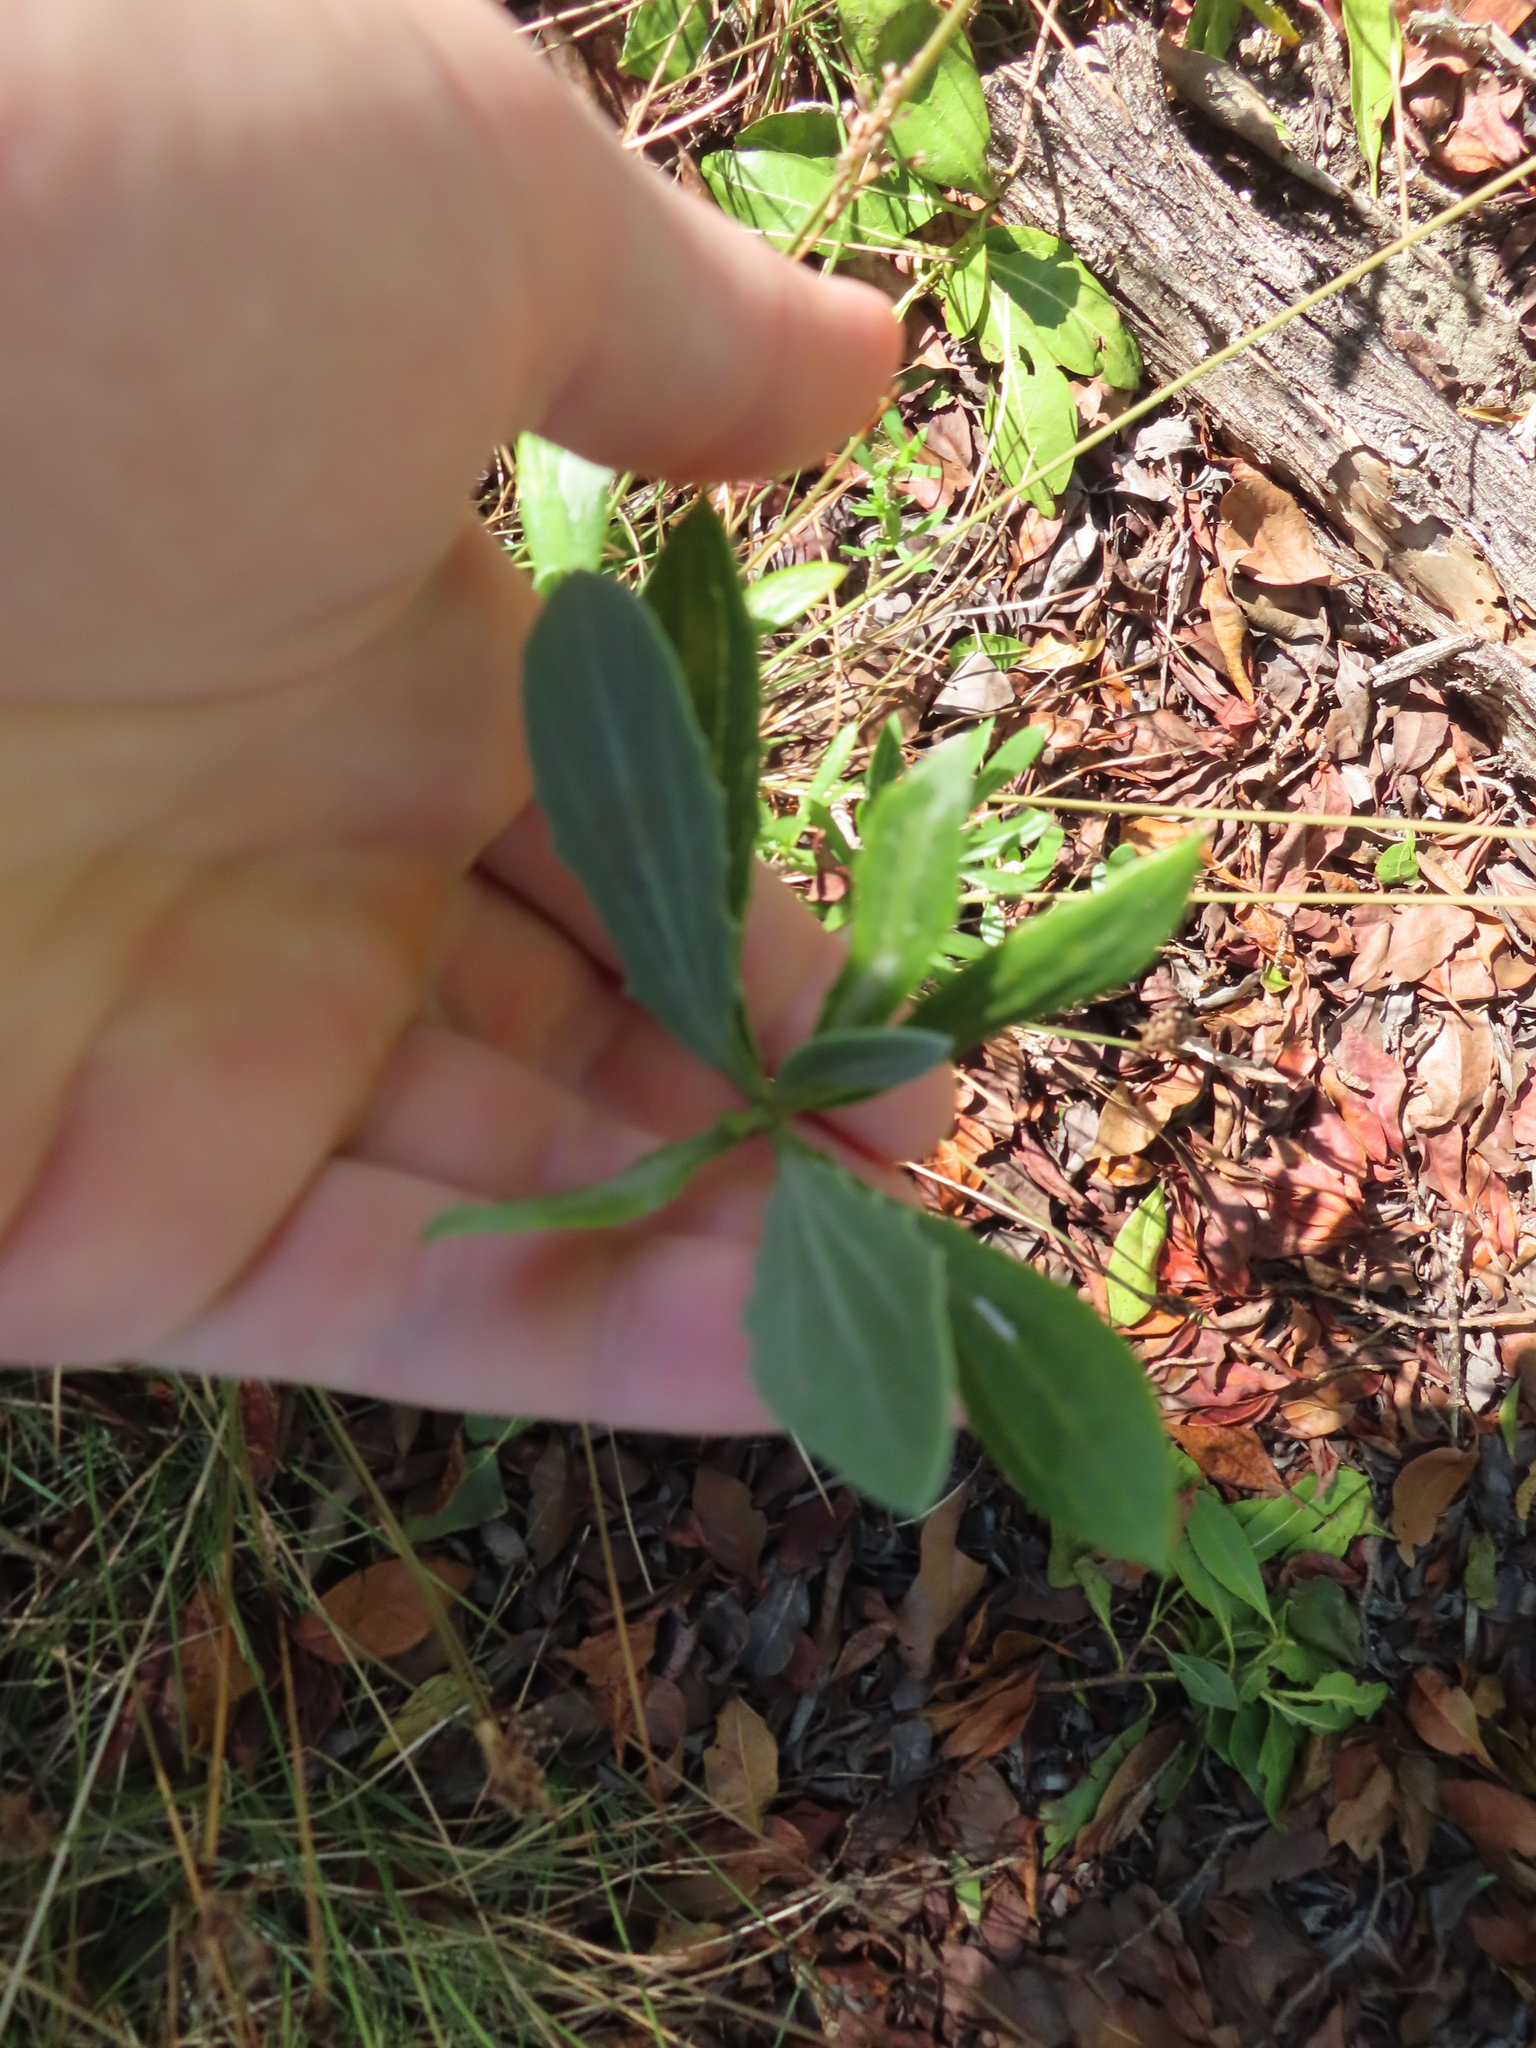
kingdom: Plantae
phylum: Tracheophyta
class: Magnoliopsida
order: Asterales
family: Asteraceae
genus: Borrichia
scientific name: Borrichia frutescens
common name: Sea oxeye
